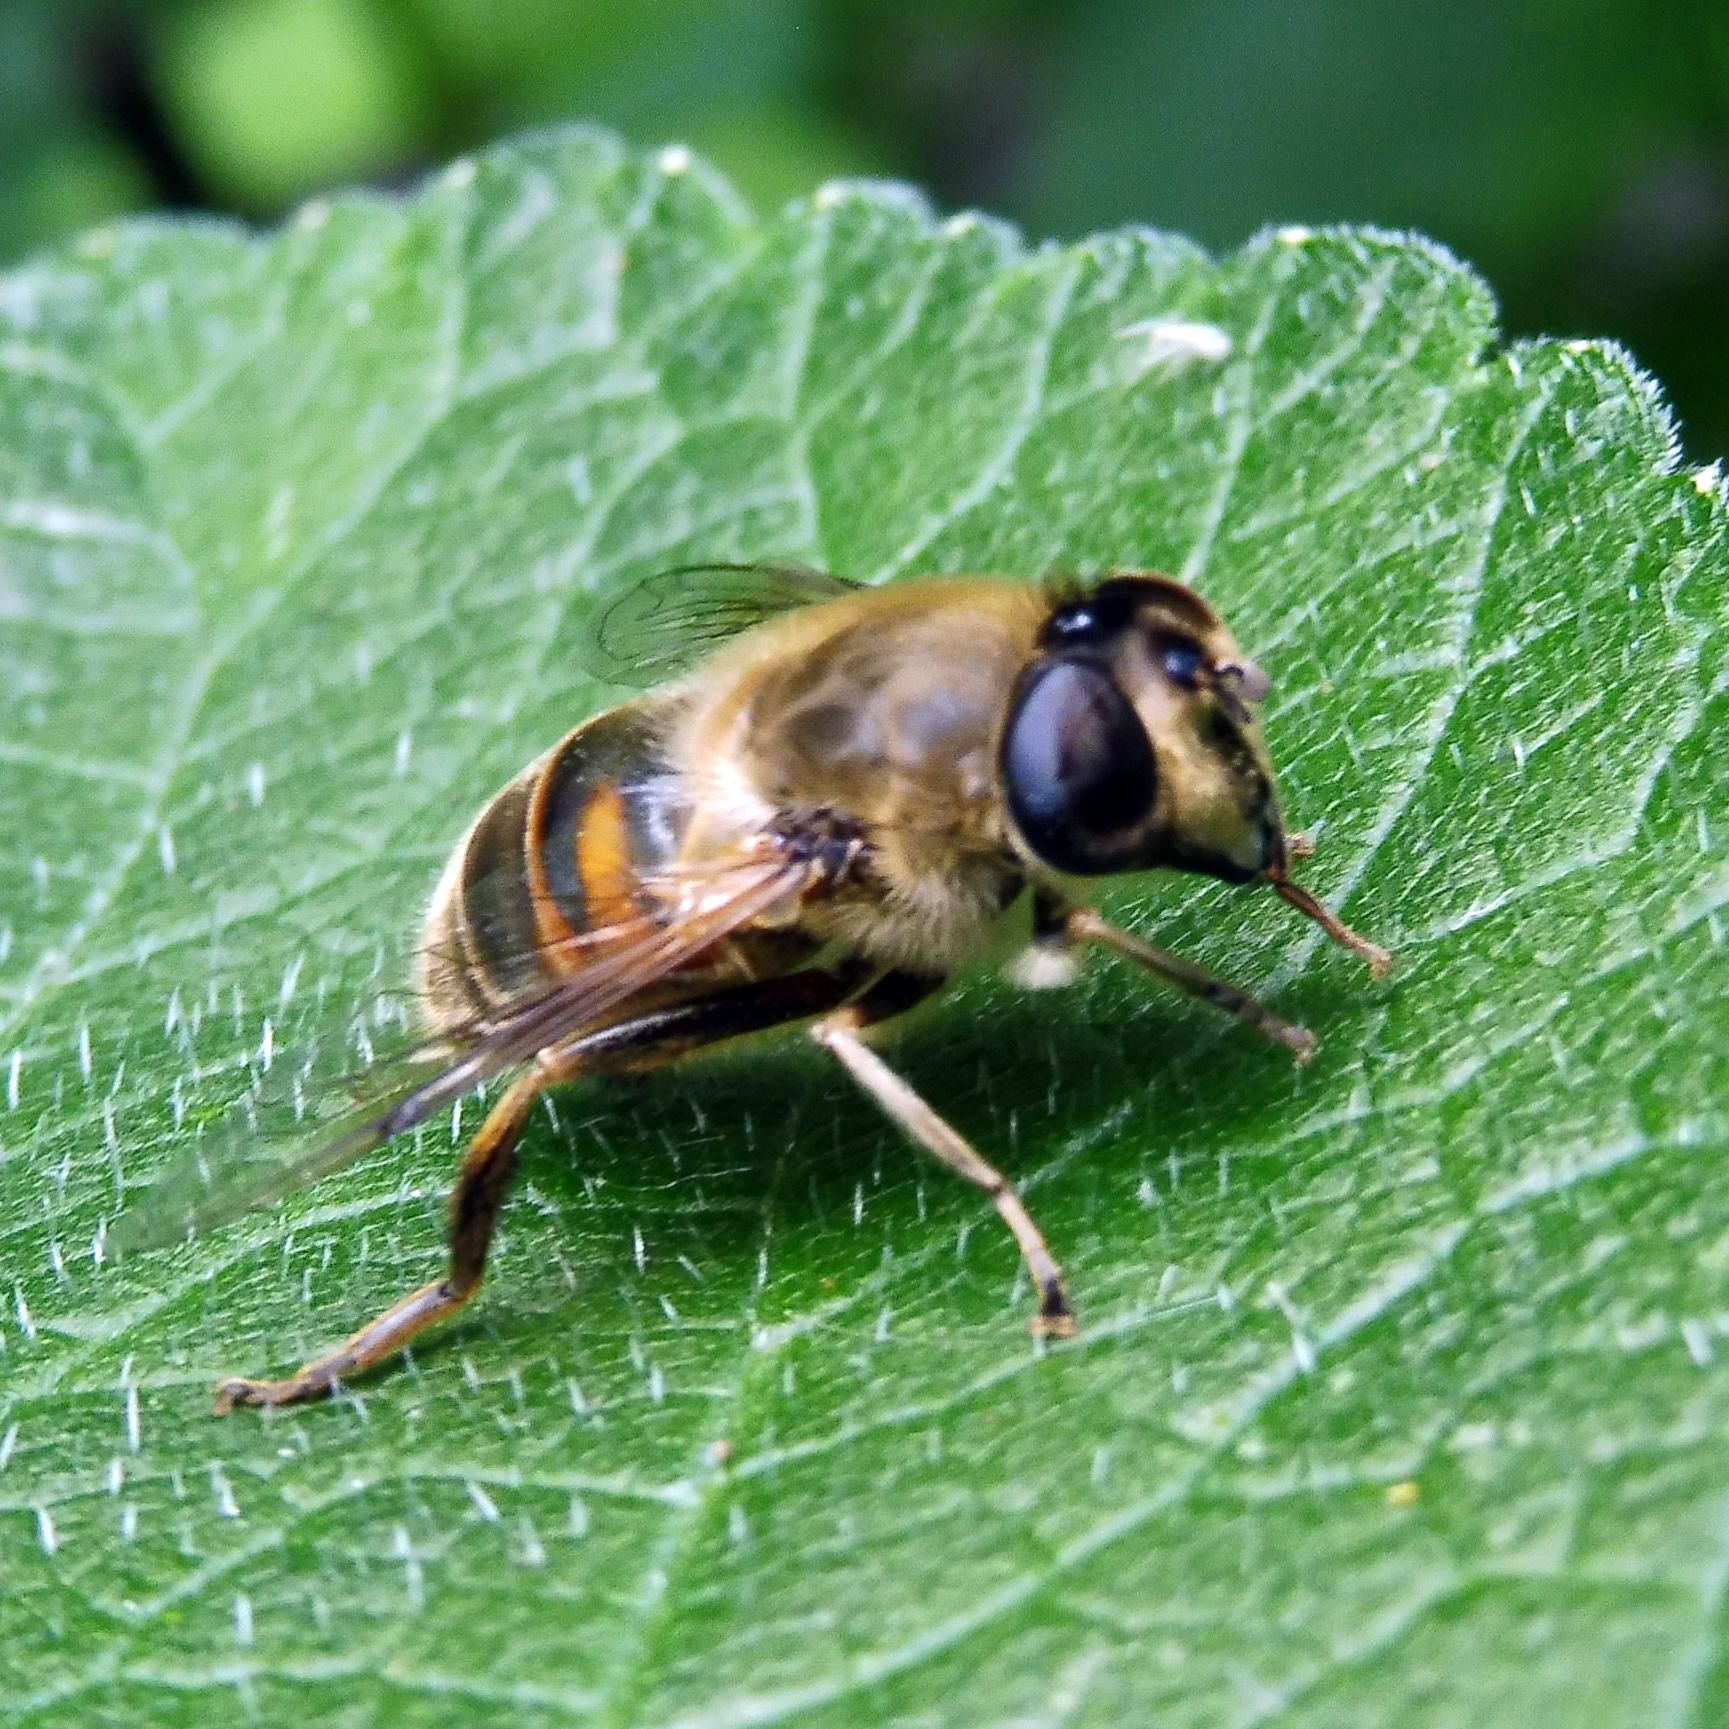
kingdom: Animalia
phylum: Arthropoda
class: Insecta
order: Diptera
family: Syrphidae
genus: Eristalis
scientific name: Eristalis tenax
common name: Drone fly
